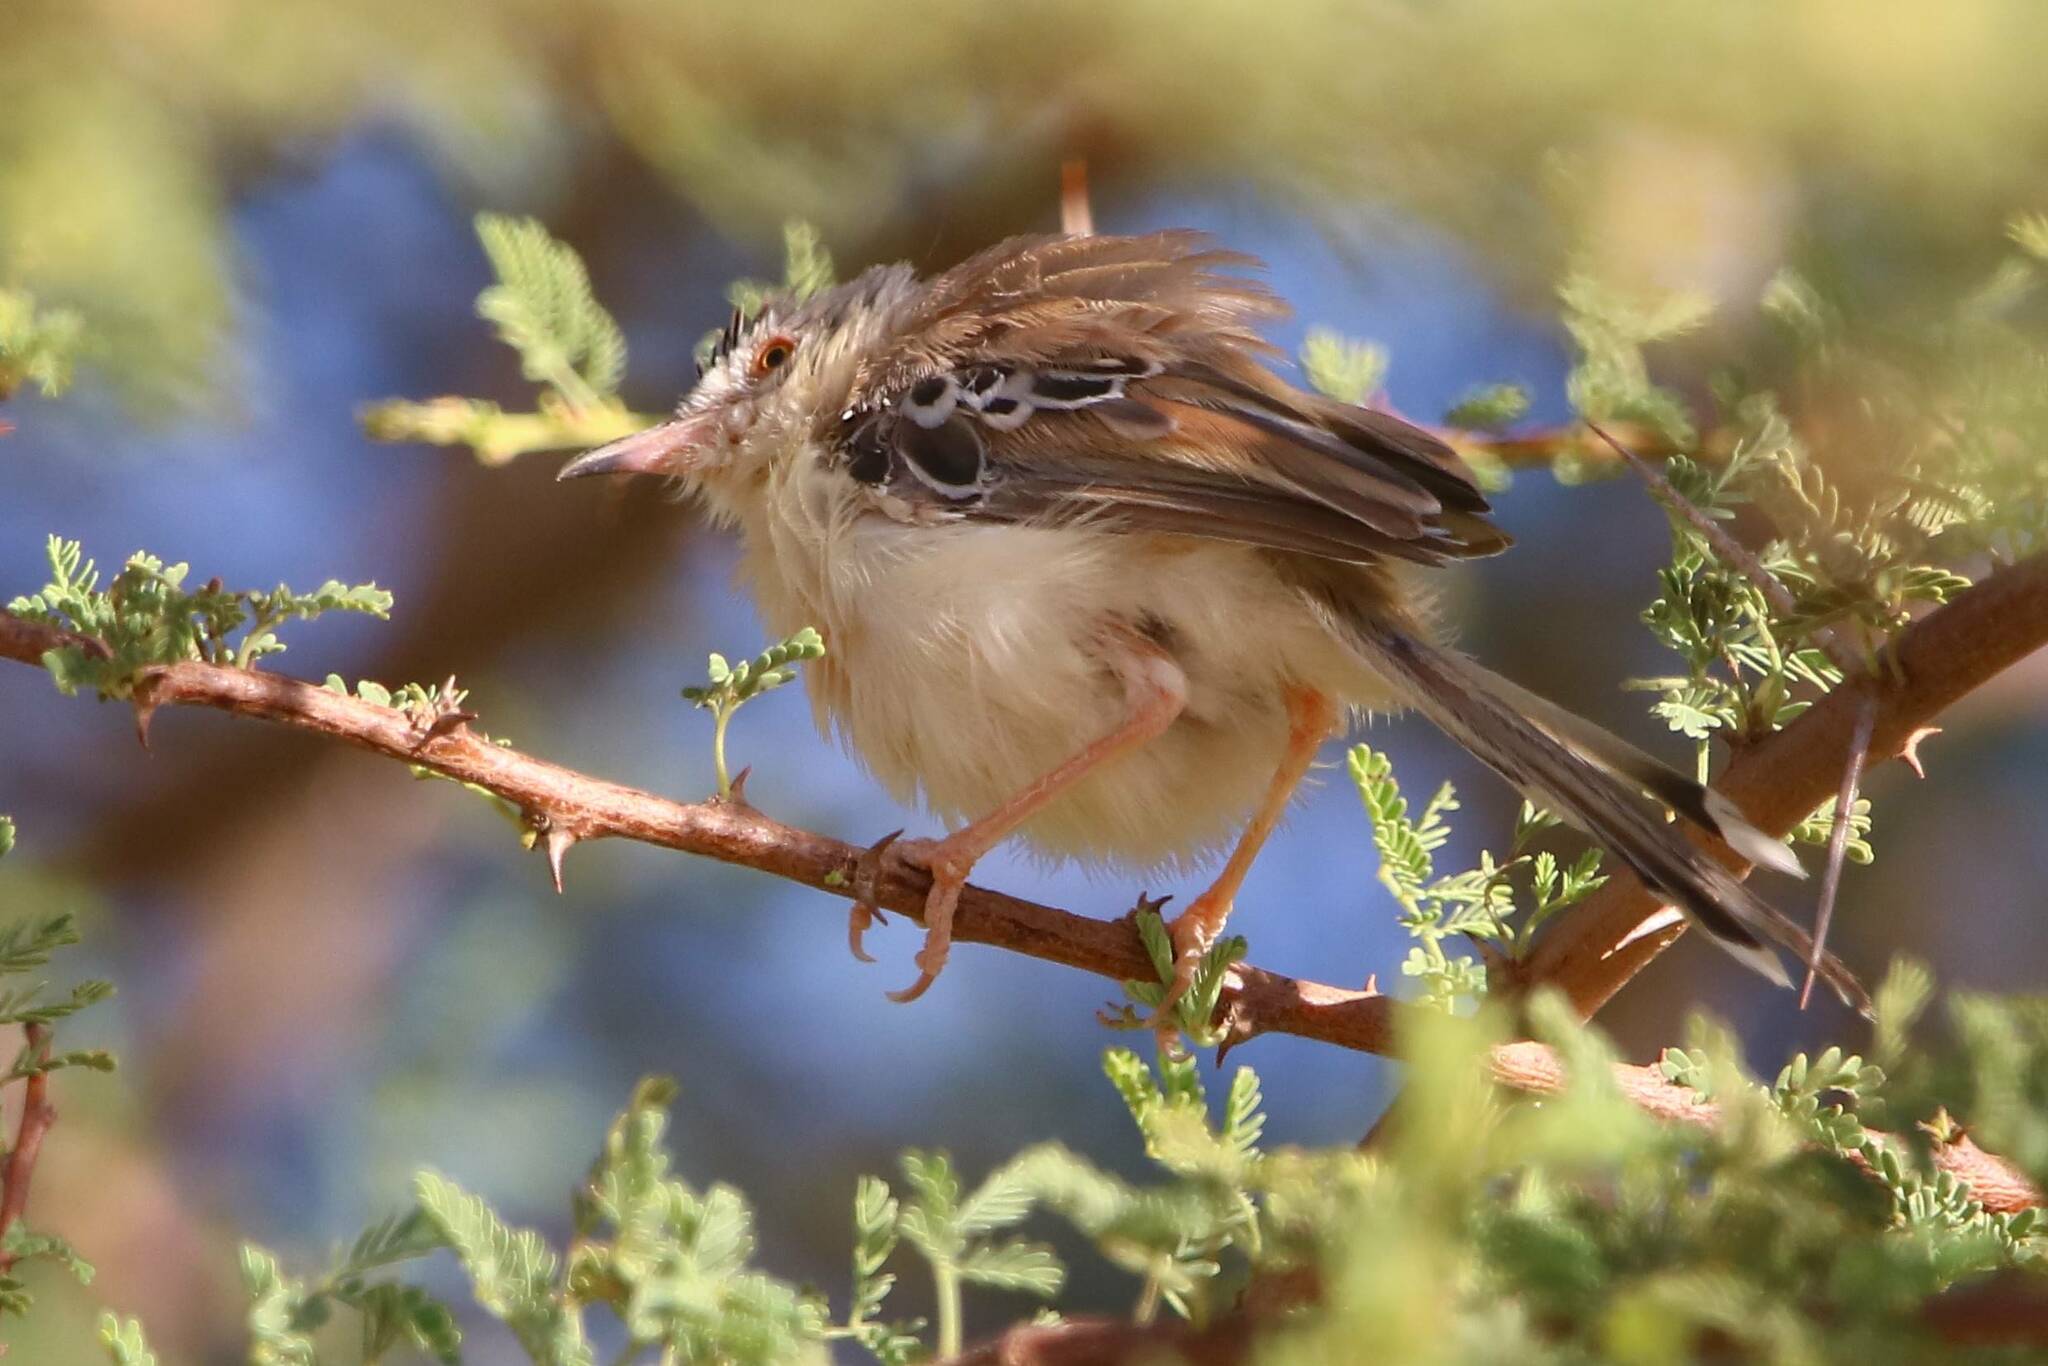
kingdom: Animalia
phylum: Chordata
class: Aves
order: Passeriformes
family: Cisticolidae
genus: Spiloptila
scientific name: Spiloptila clamans
